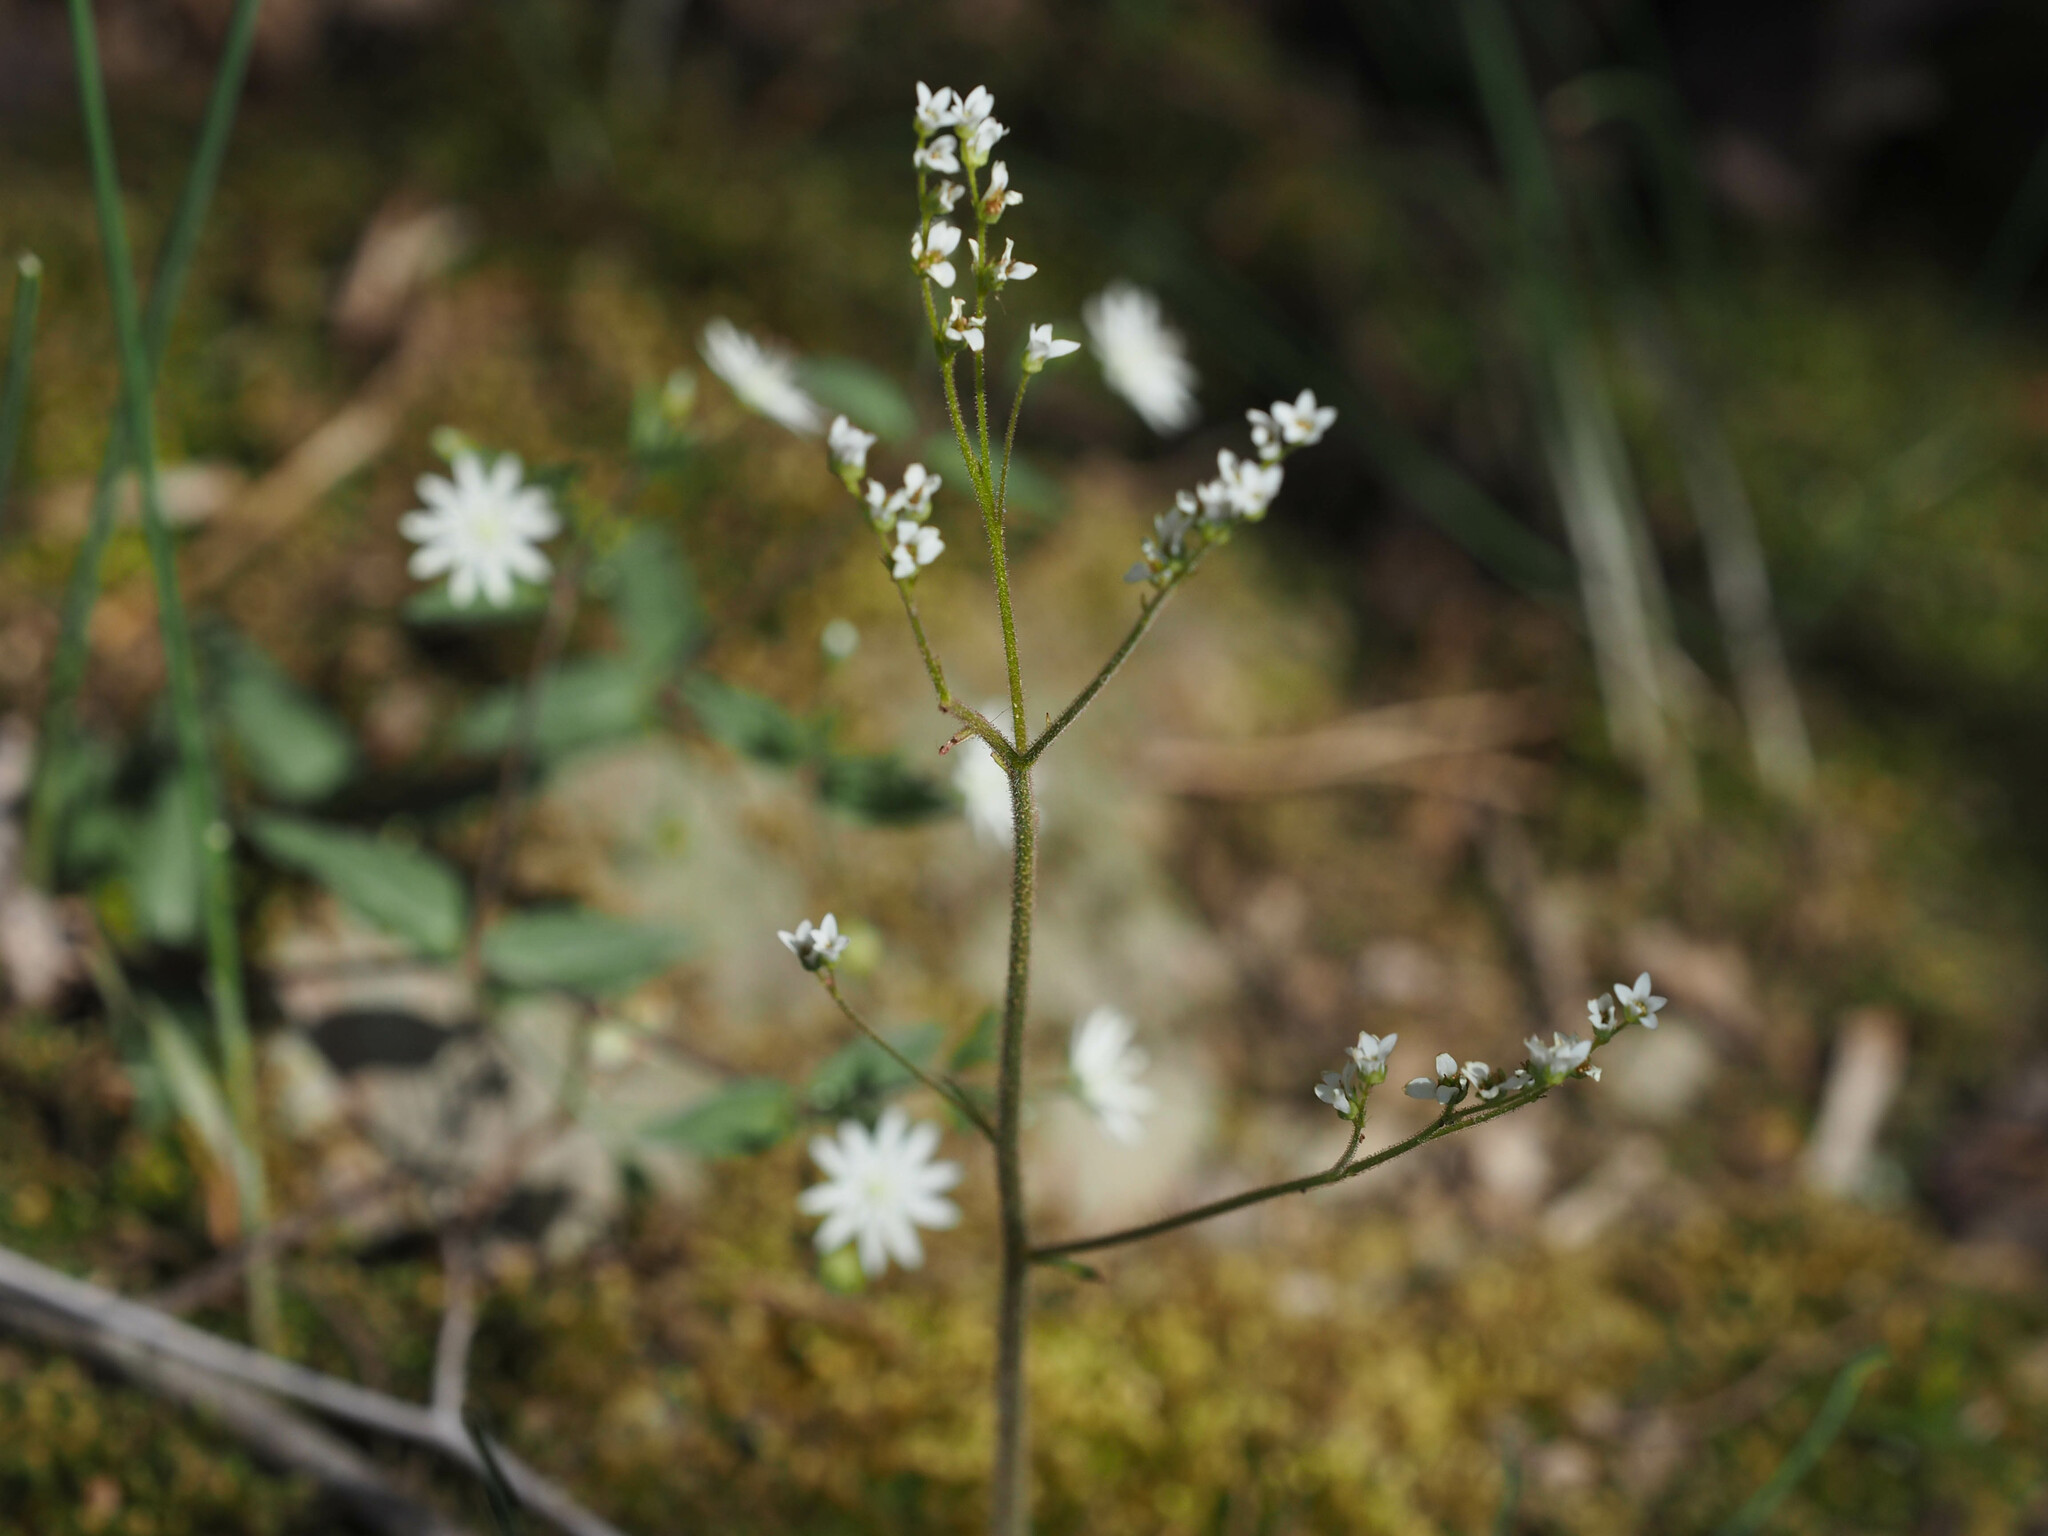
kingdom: Plantae
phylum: Tracheophyta
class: Magnoliopsida
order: Saxifragales
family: Saxifragaceae
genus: Micranthes
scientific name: Micranthes virginiensis
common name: Early saxifrage
